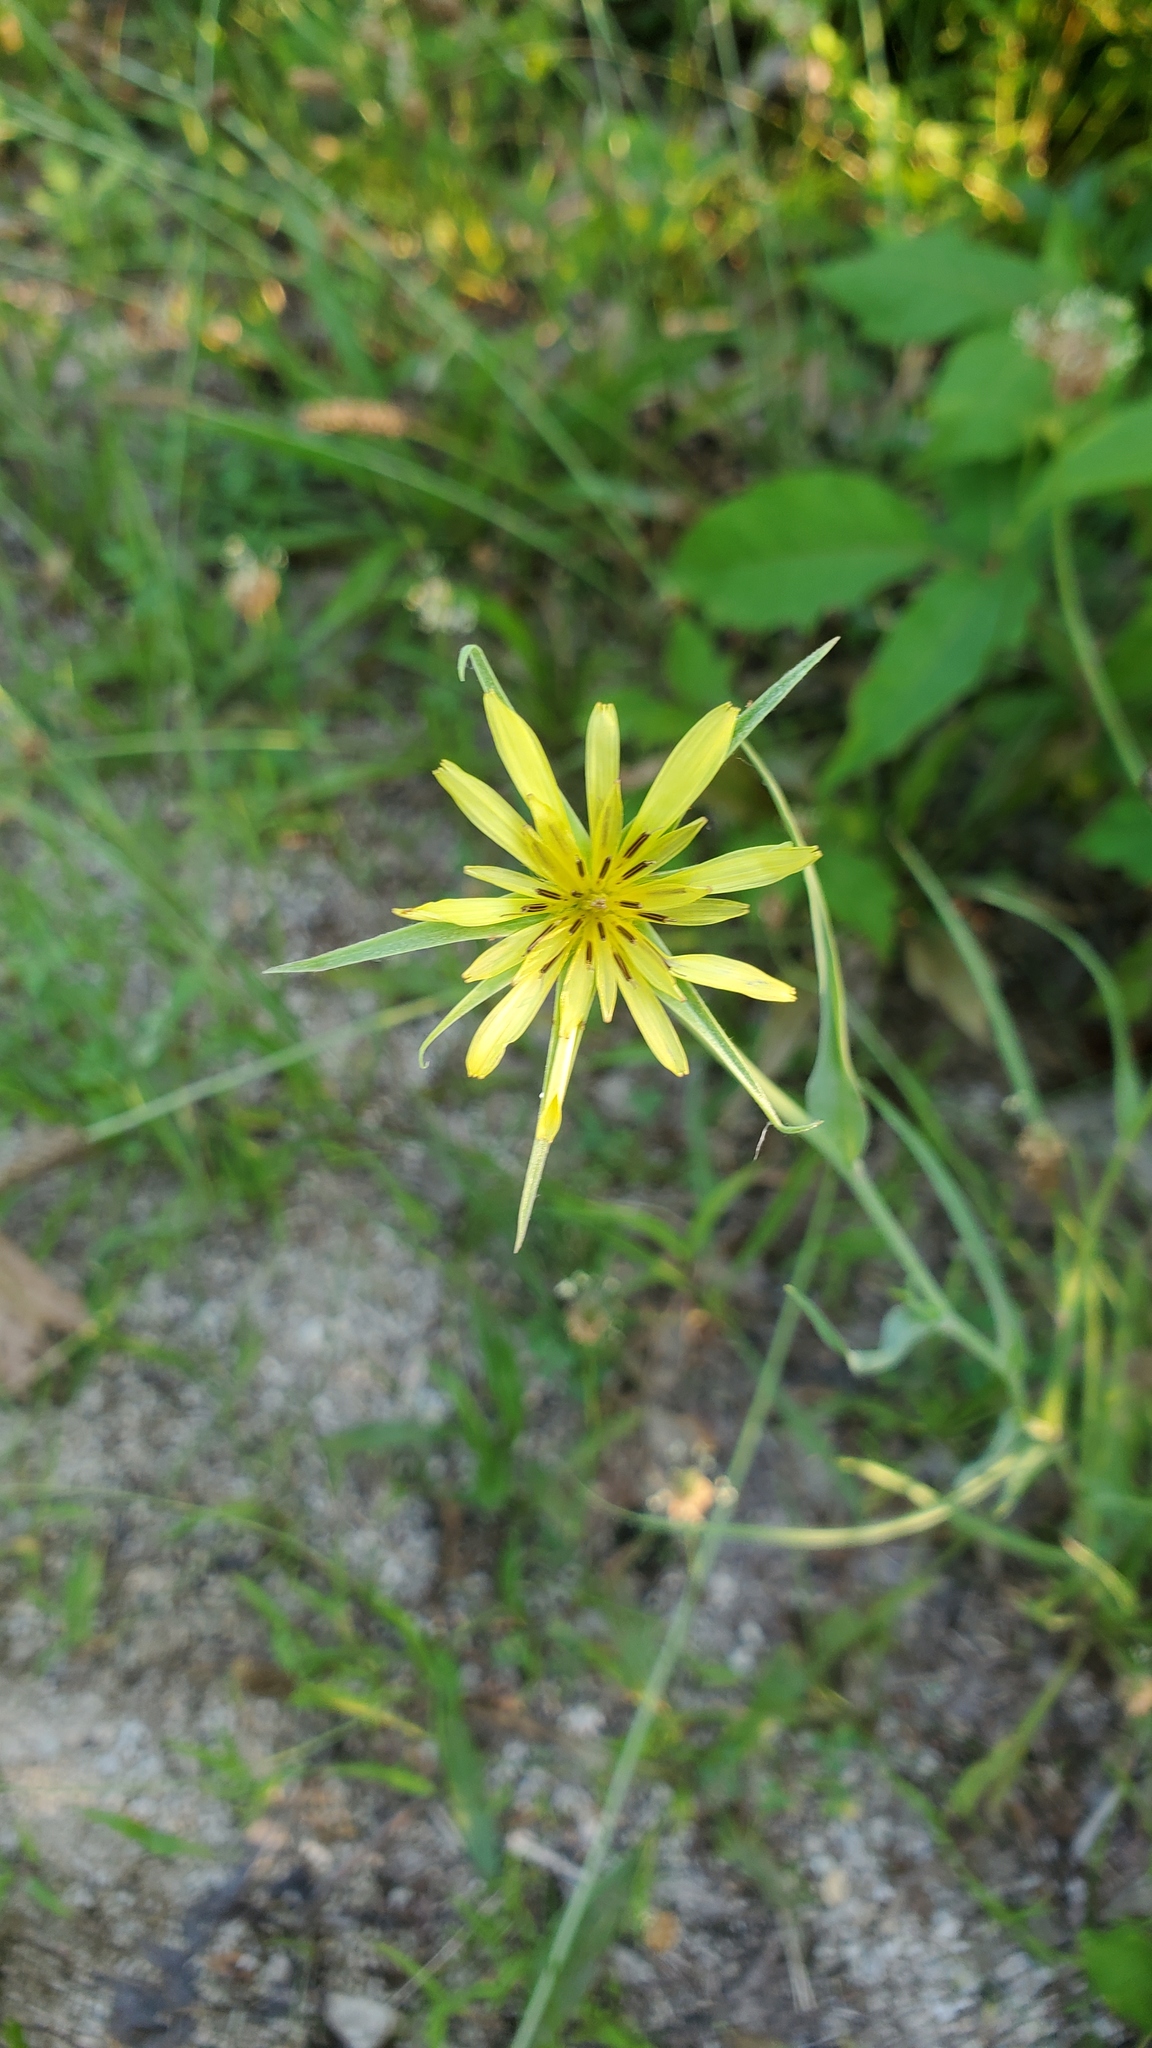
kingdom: Plantae
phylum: Tracheophyta
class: Magnoliopsida
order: Asterales
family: Asteraceae
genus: Tragopogon
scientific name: Tragopogon dubius
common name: Yellow salsify
